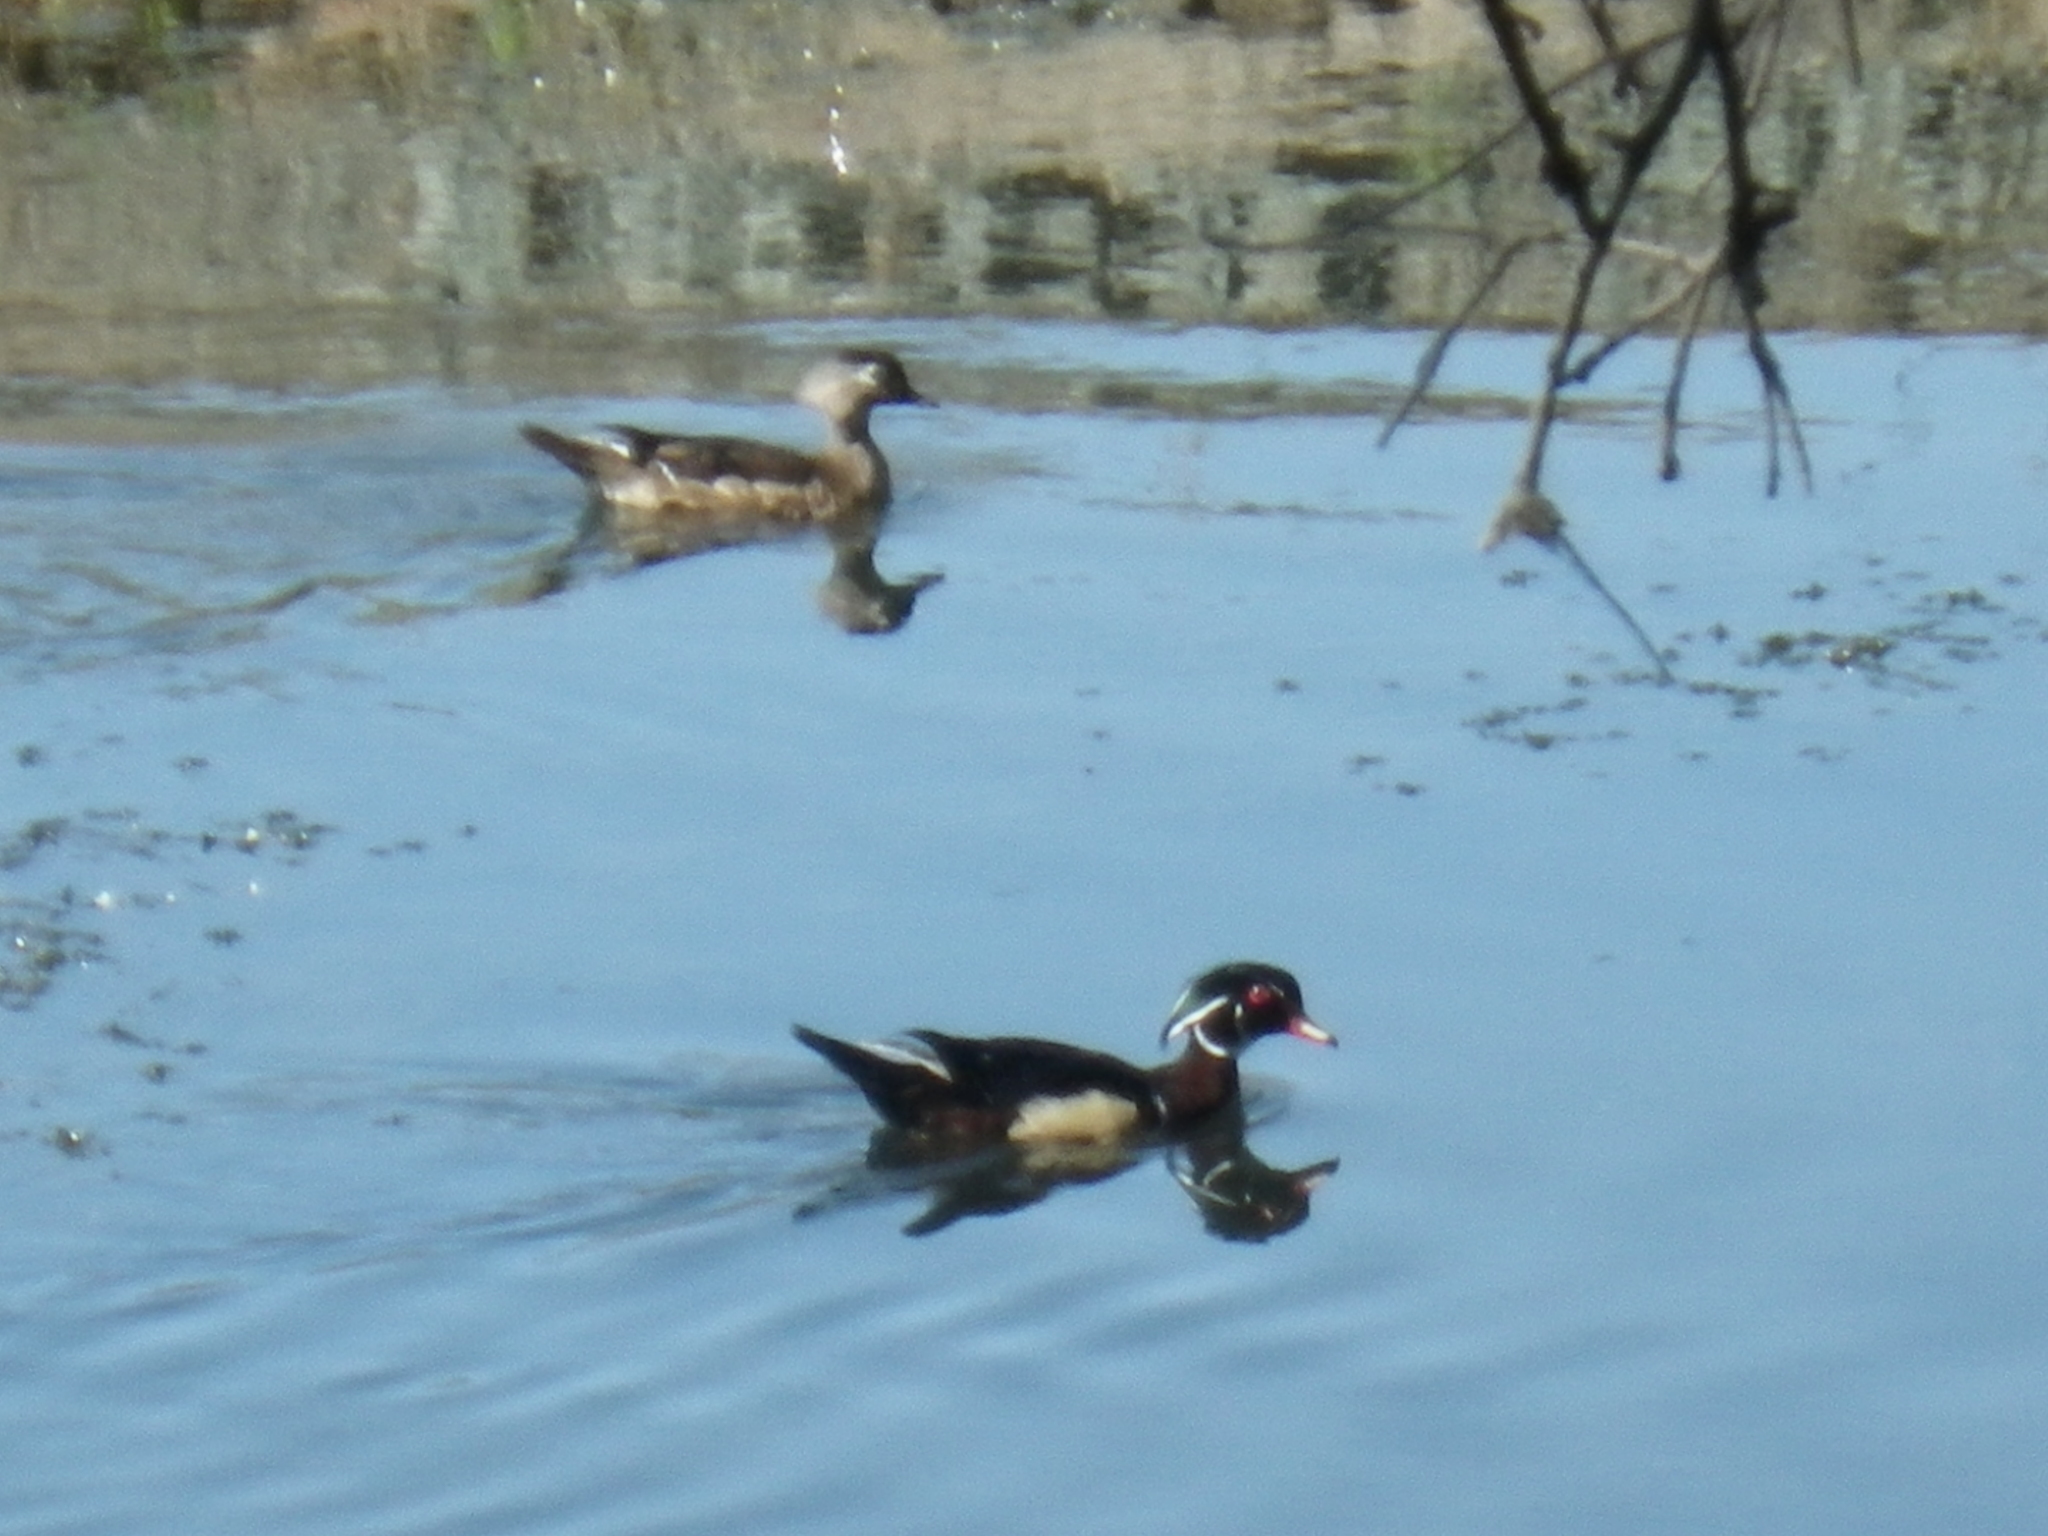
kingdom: Animalia
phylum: Chordata
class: Aves
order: Anseriformes
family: Anatidae
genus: Aix
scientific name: Aix sponsa
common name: Wood duck
